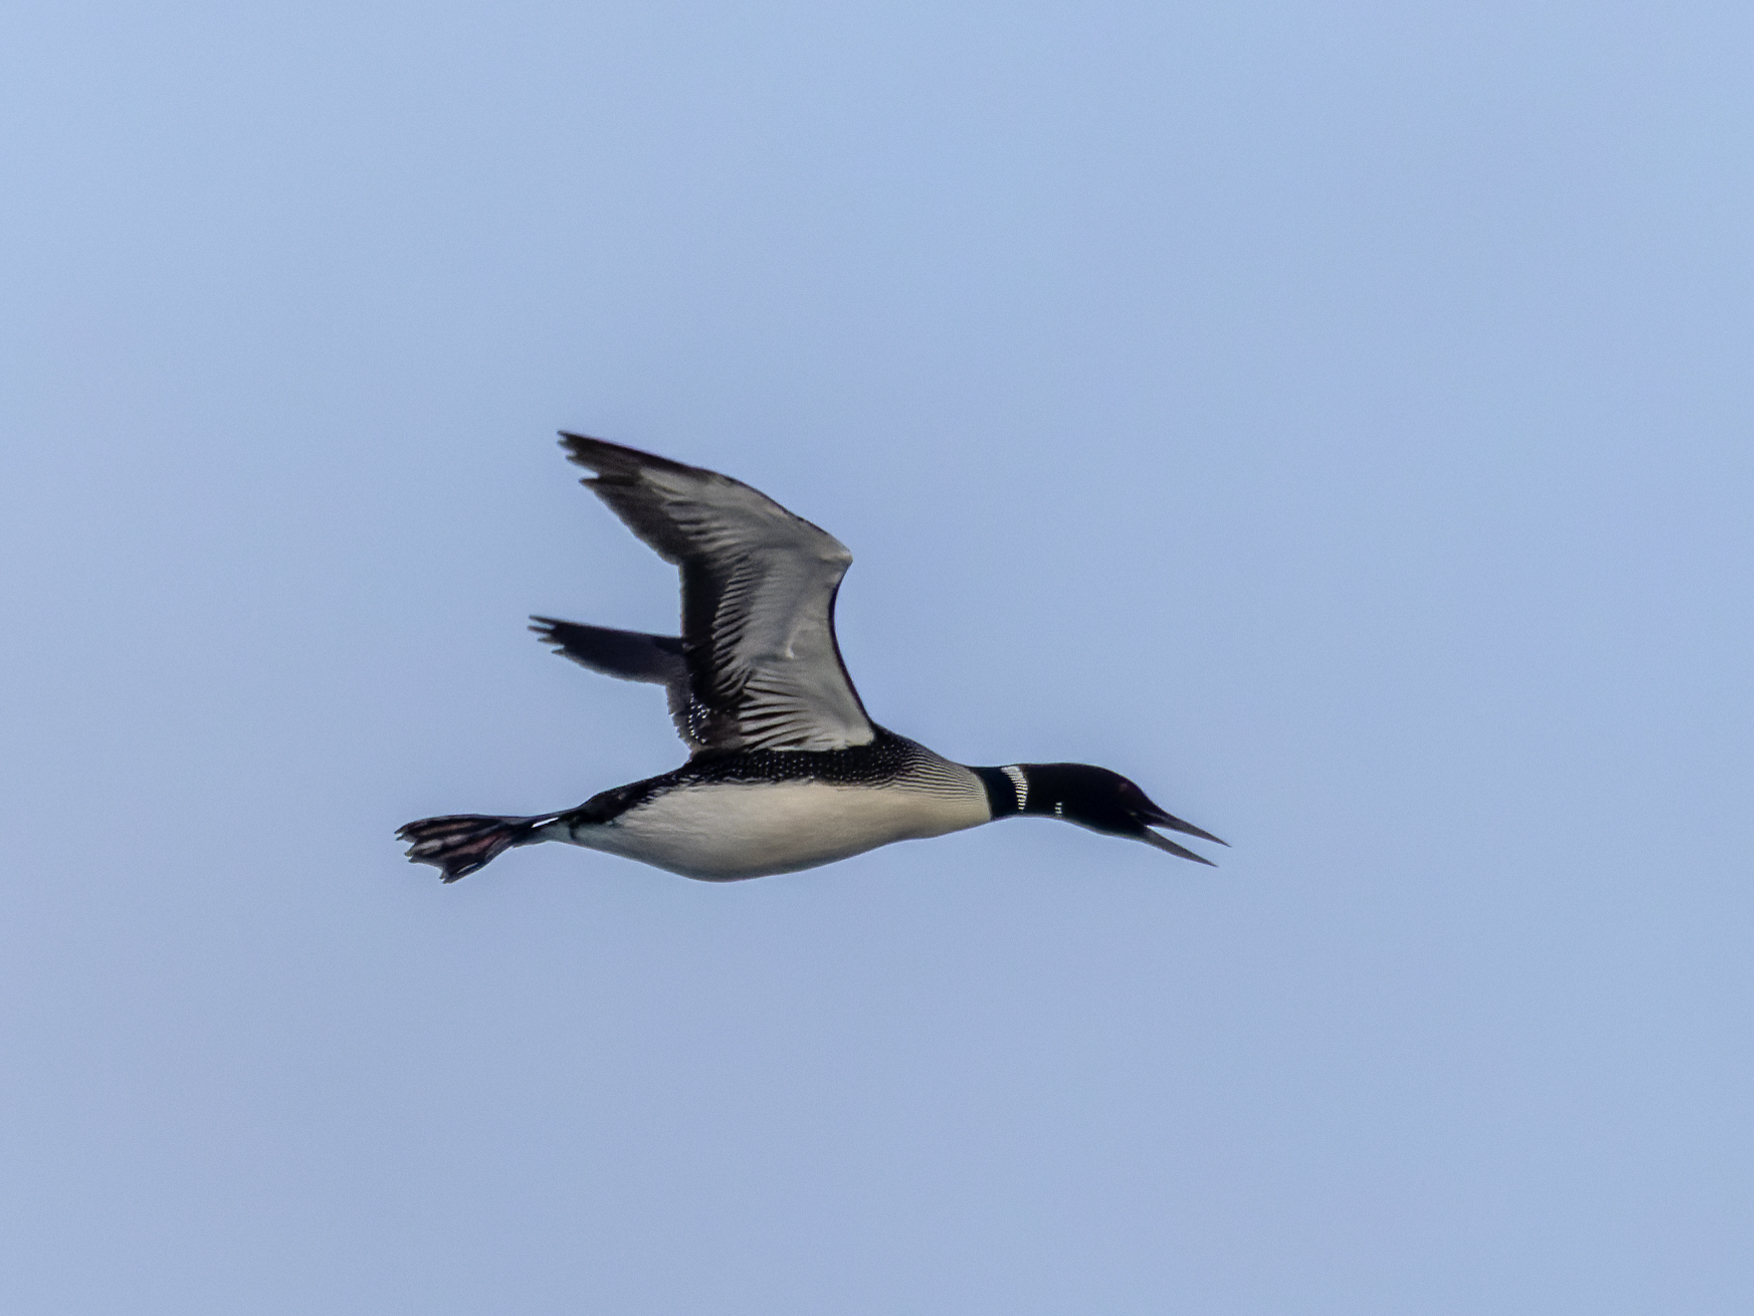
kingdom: Animalia
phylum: Chordata
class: Aves
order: Gaviiformes
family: Gaviidae
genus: Gavia
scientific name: Gavia immer
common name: Common loon
